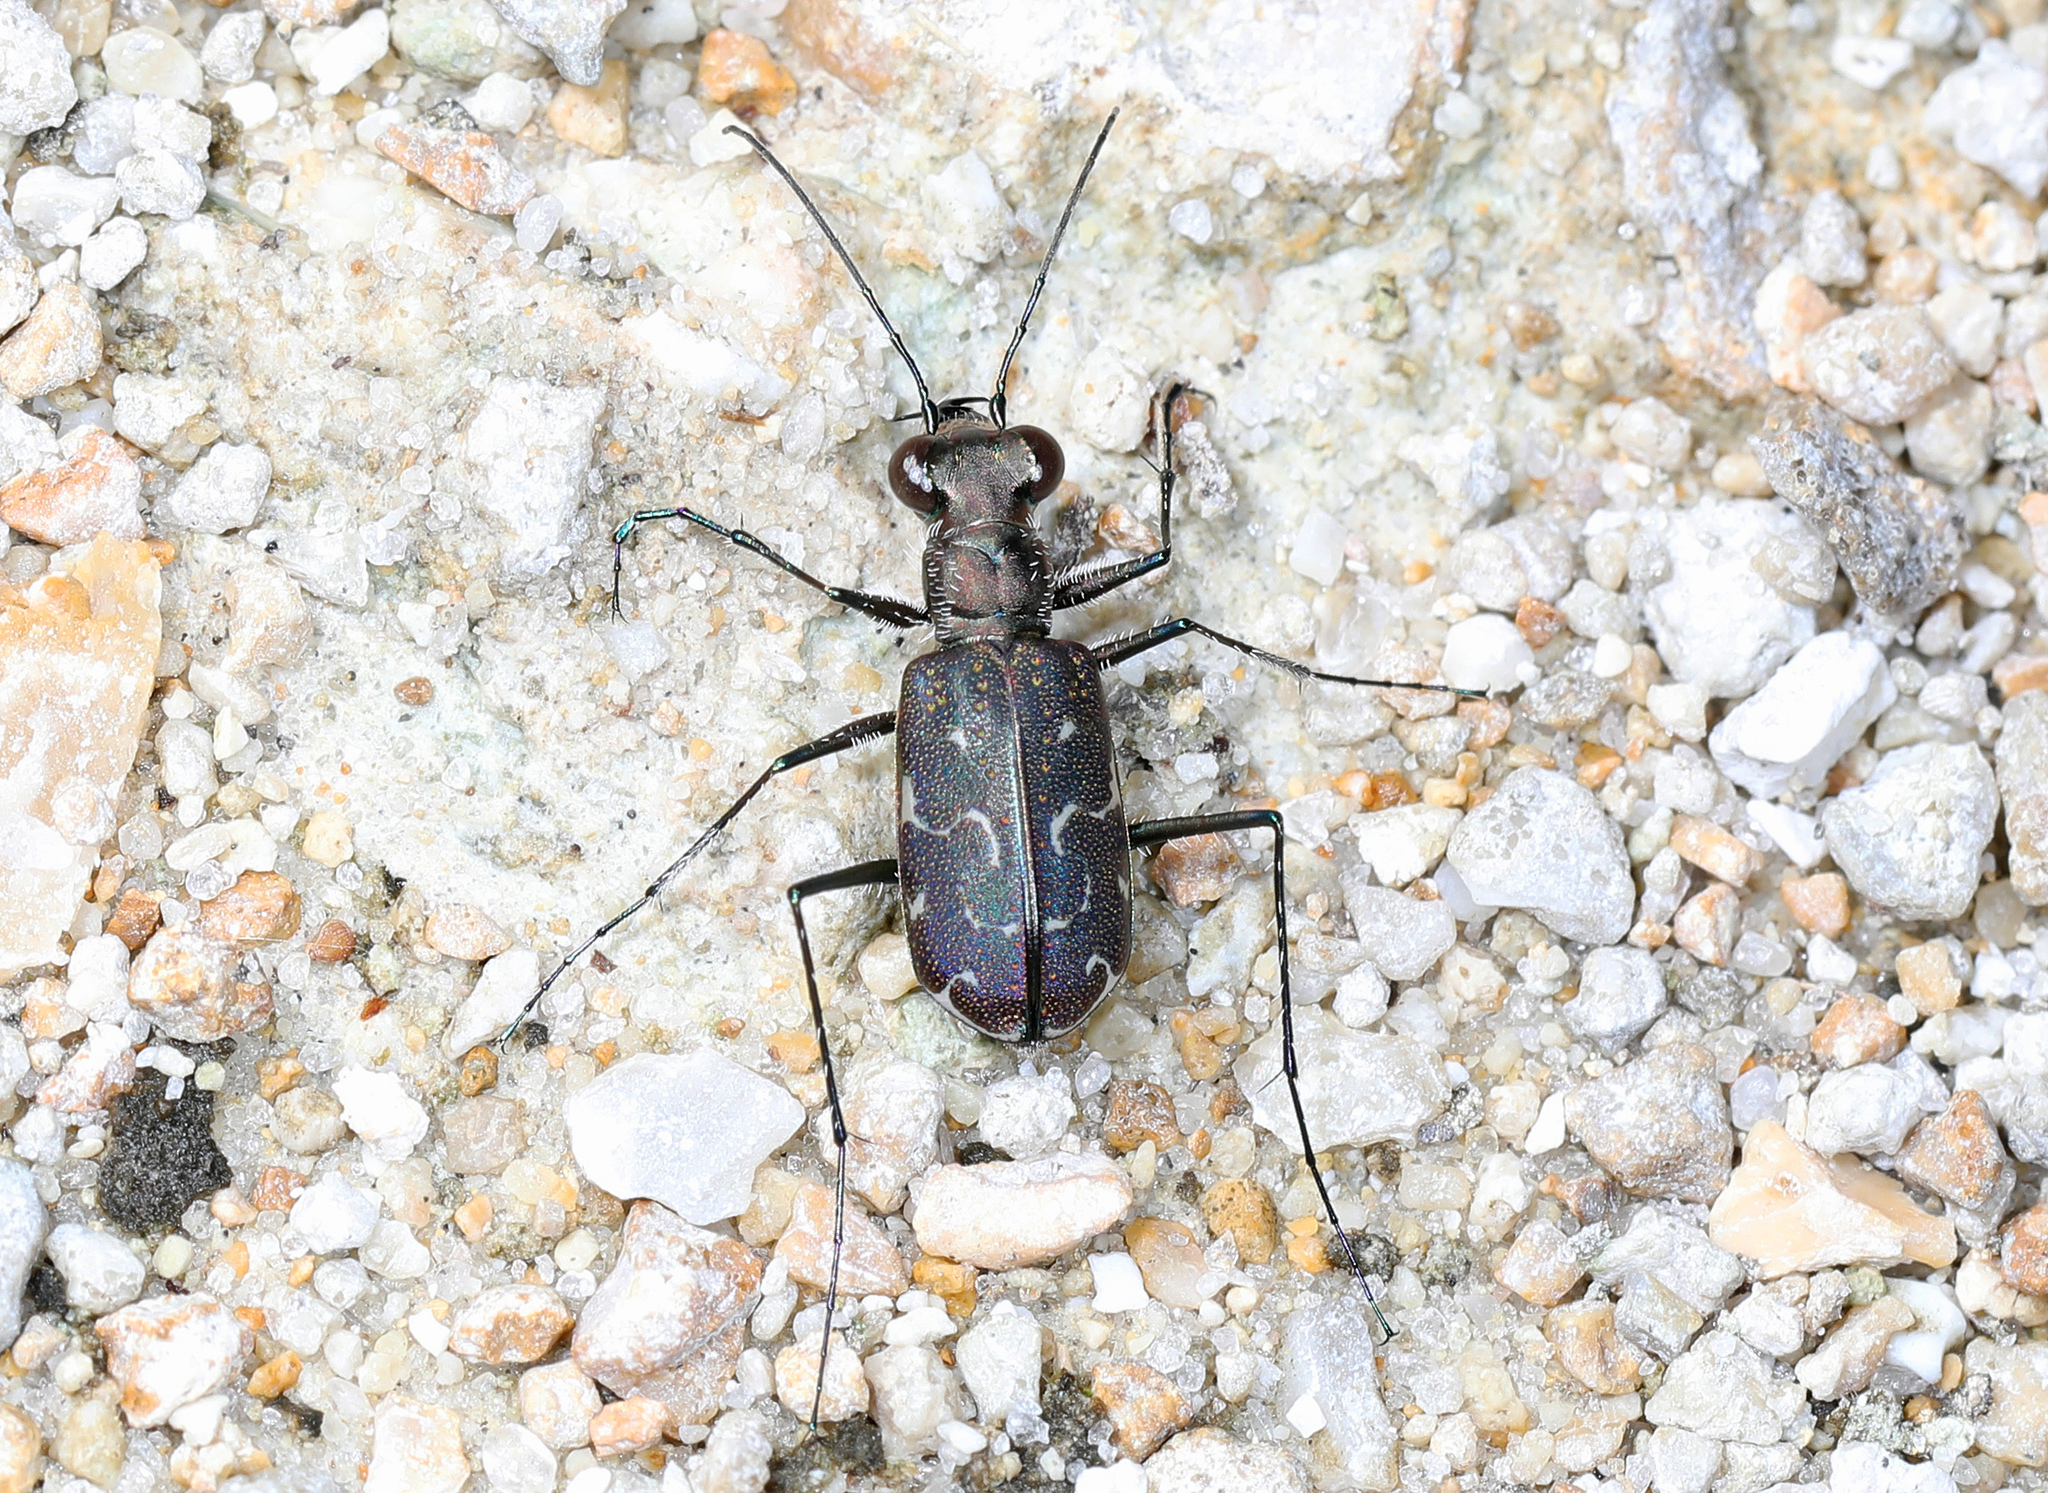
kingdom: Animalia
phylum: Arthropoda
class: Insecta
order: Coleoptera
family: Carabidae
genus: Cicindela
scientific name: Cicindela trifasciata
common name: Mudflat tiger beetle
